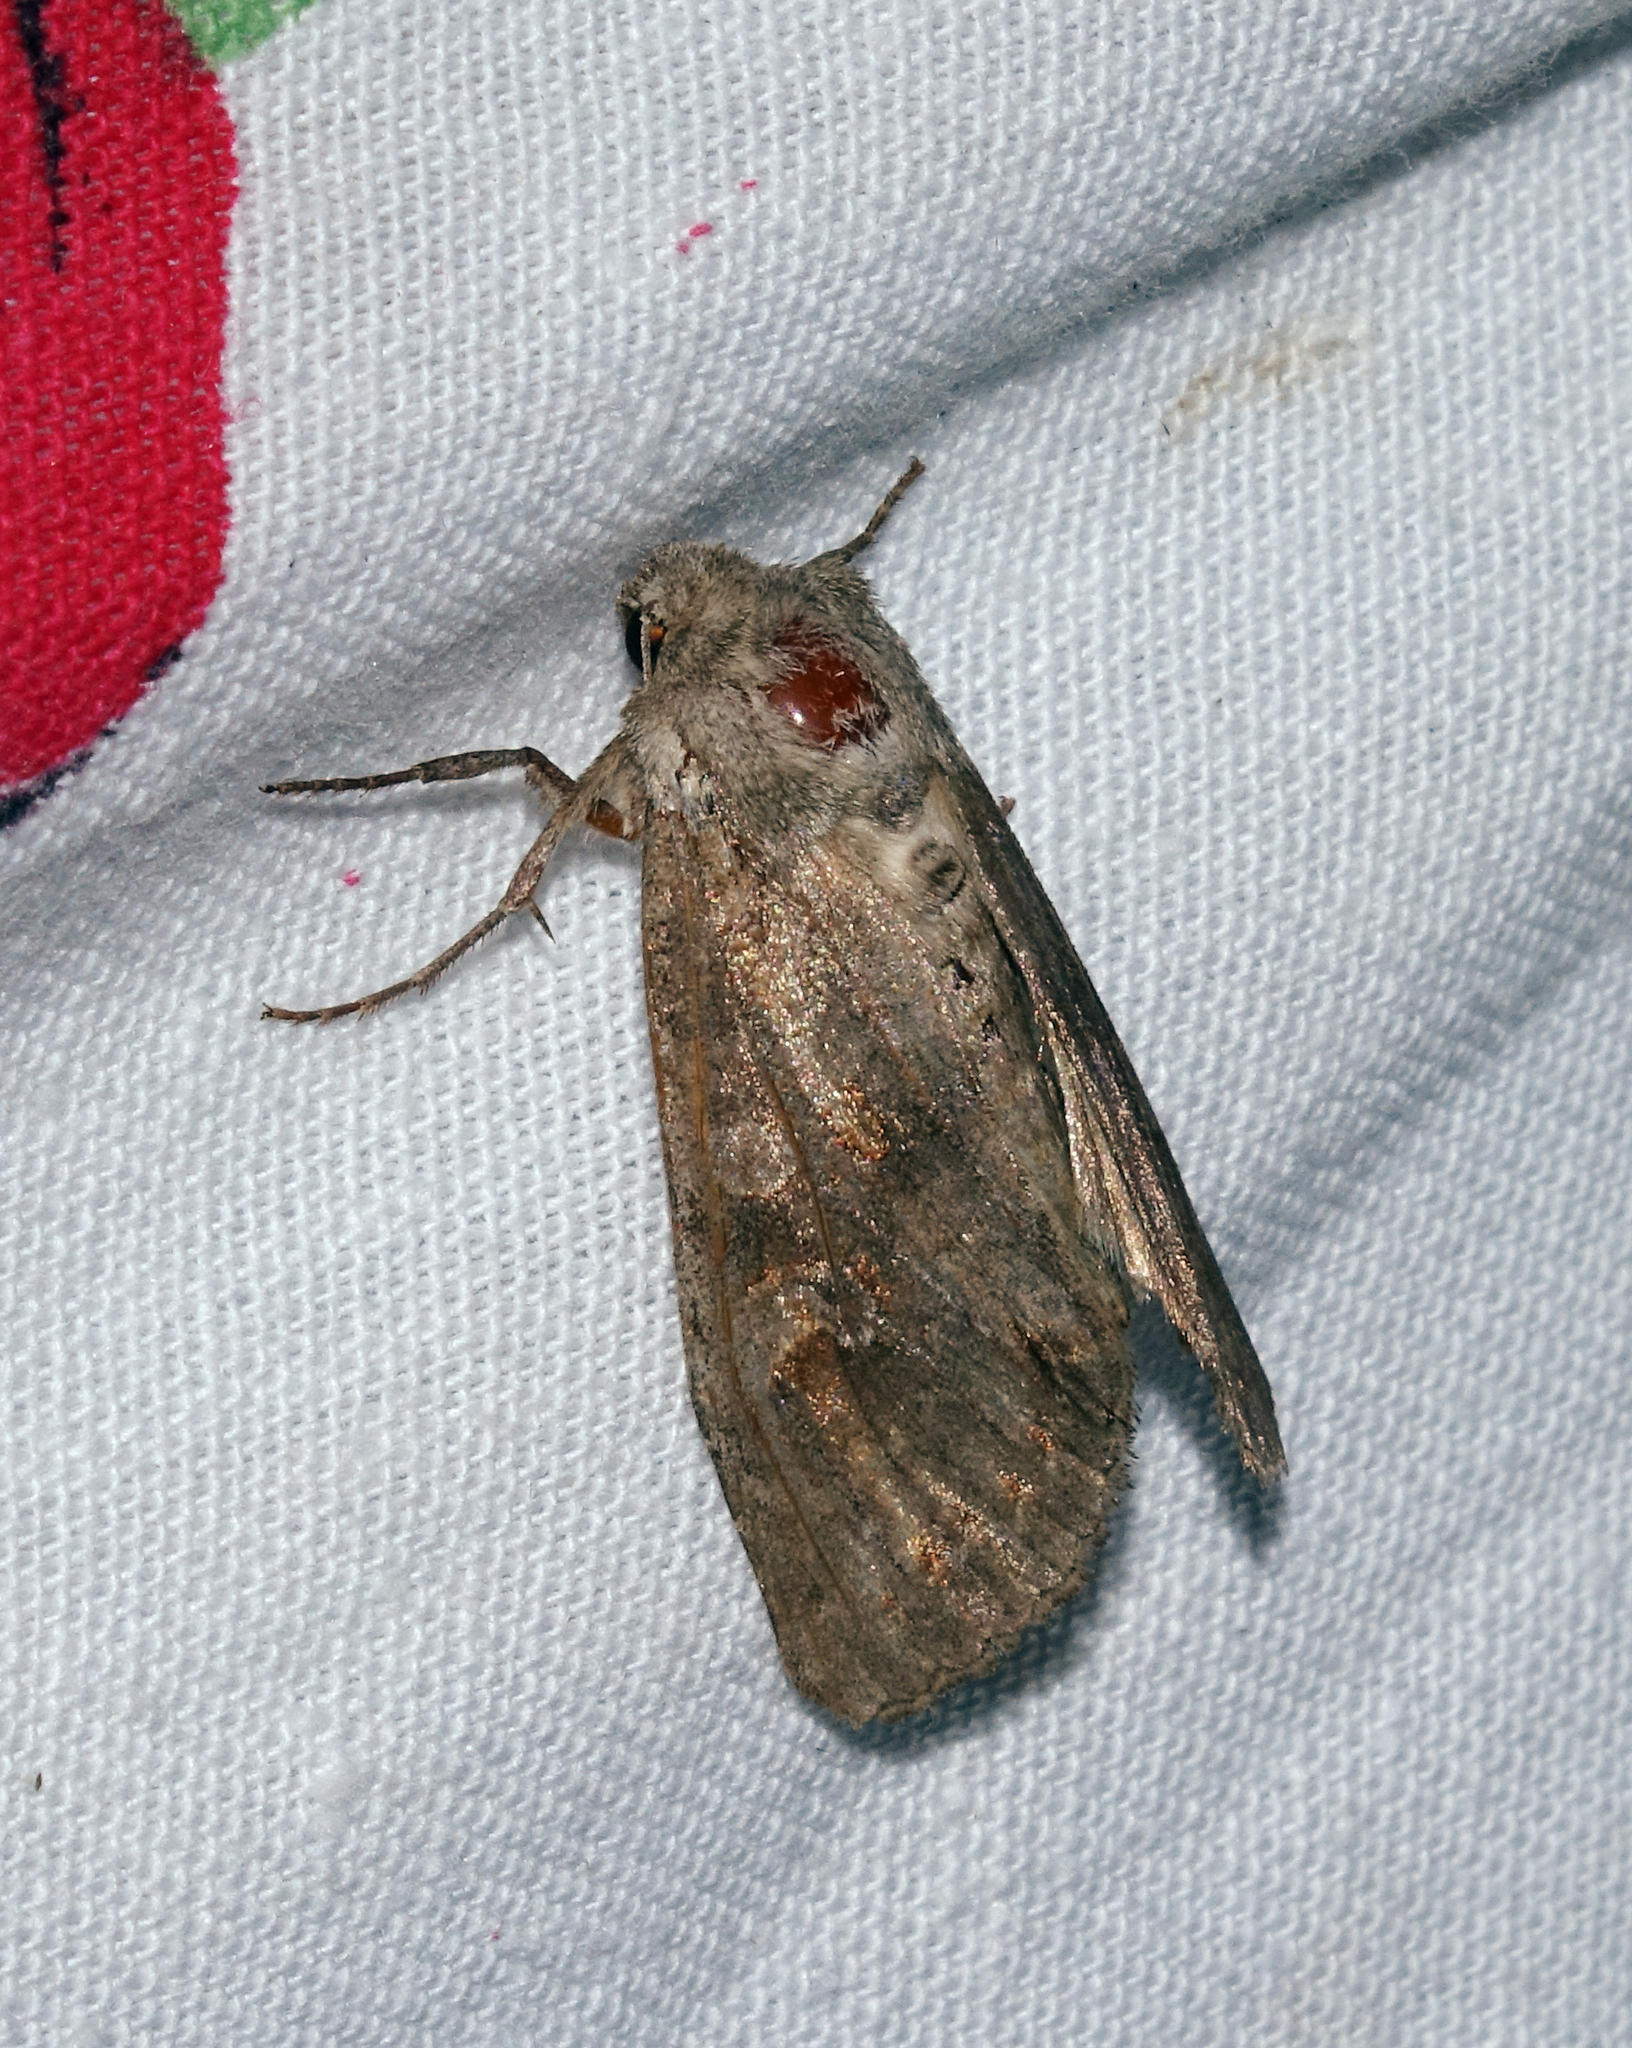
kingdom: Animalia
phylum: Arthropoda
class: Insecta
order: Lepidoptera
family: Noctuidae
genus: Polia
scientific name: Polia bombycina
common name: Pale shining brown
